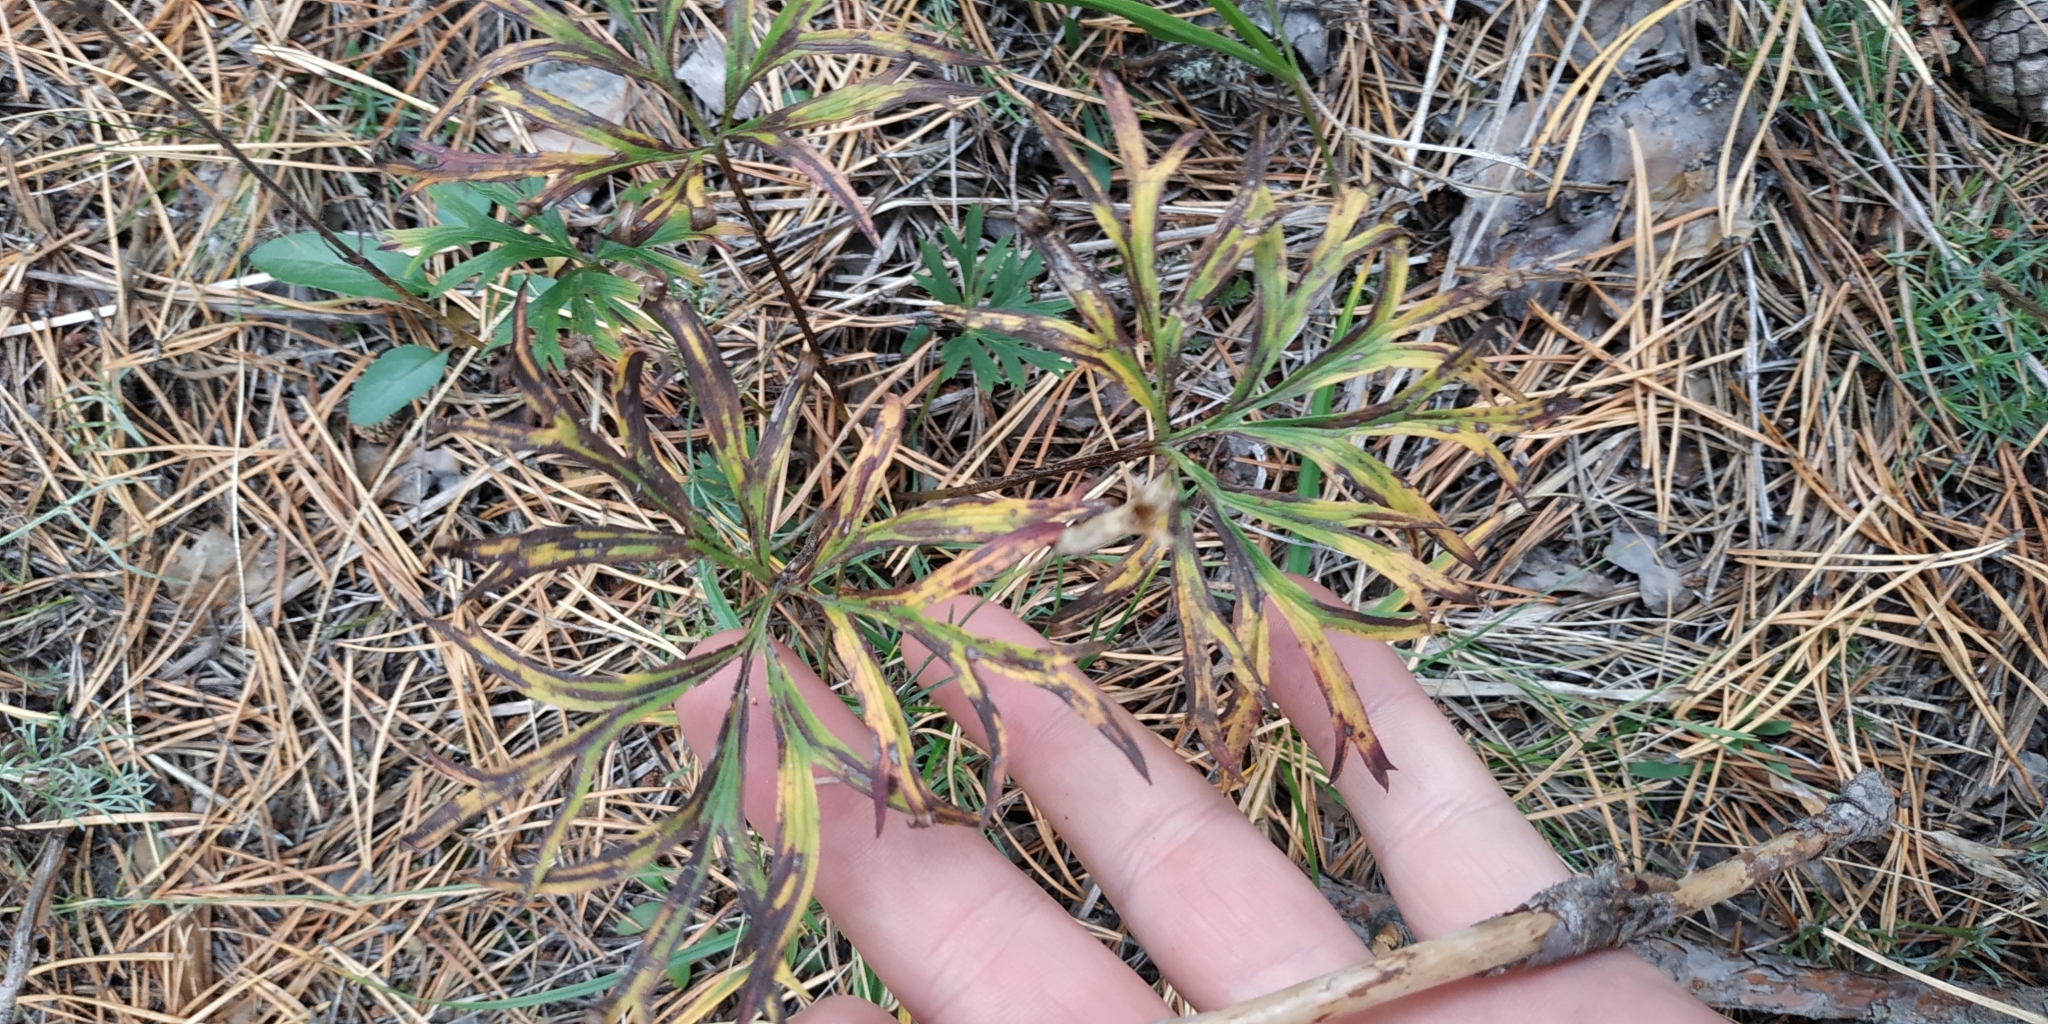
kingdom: Plantae
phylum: Tracheophyta
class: Magnoliopsida
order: Ranunculales
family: Ranunculaceae
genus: Pulsatilla
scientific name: Pulsatilla patens
